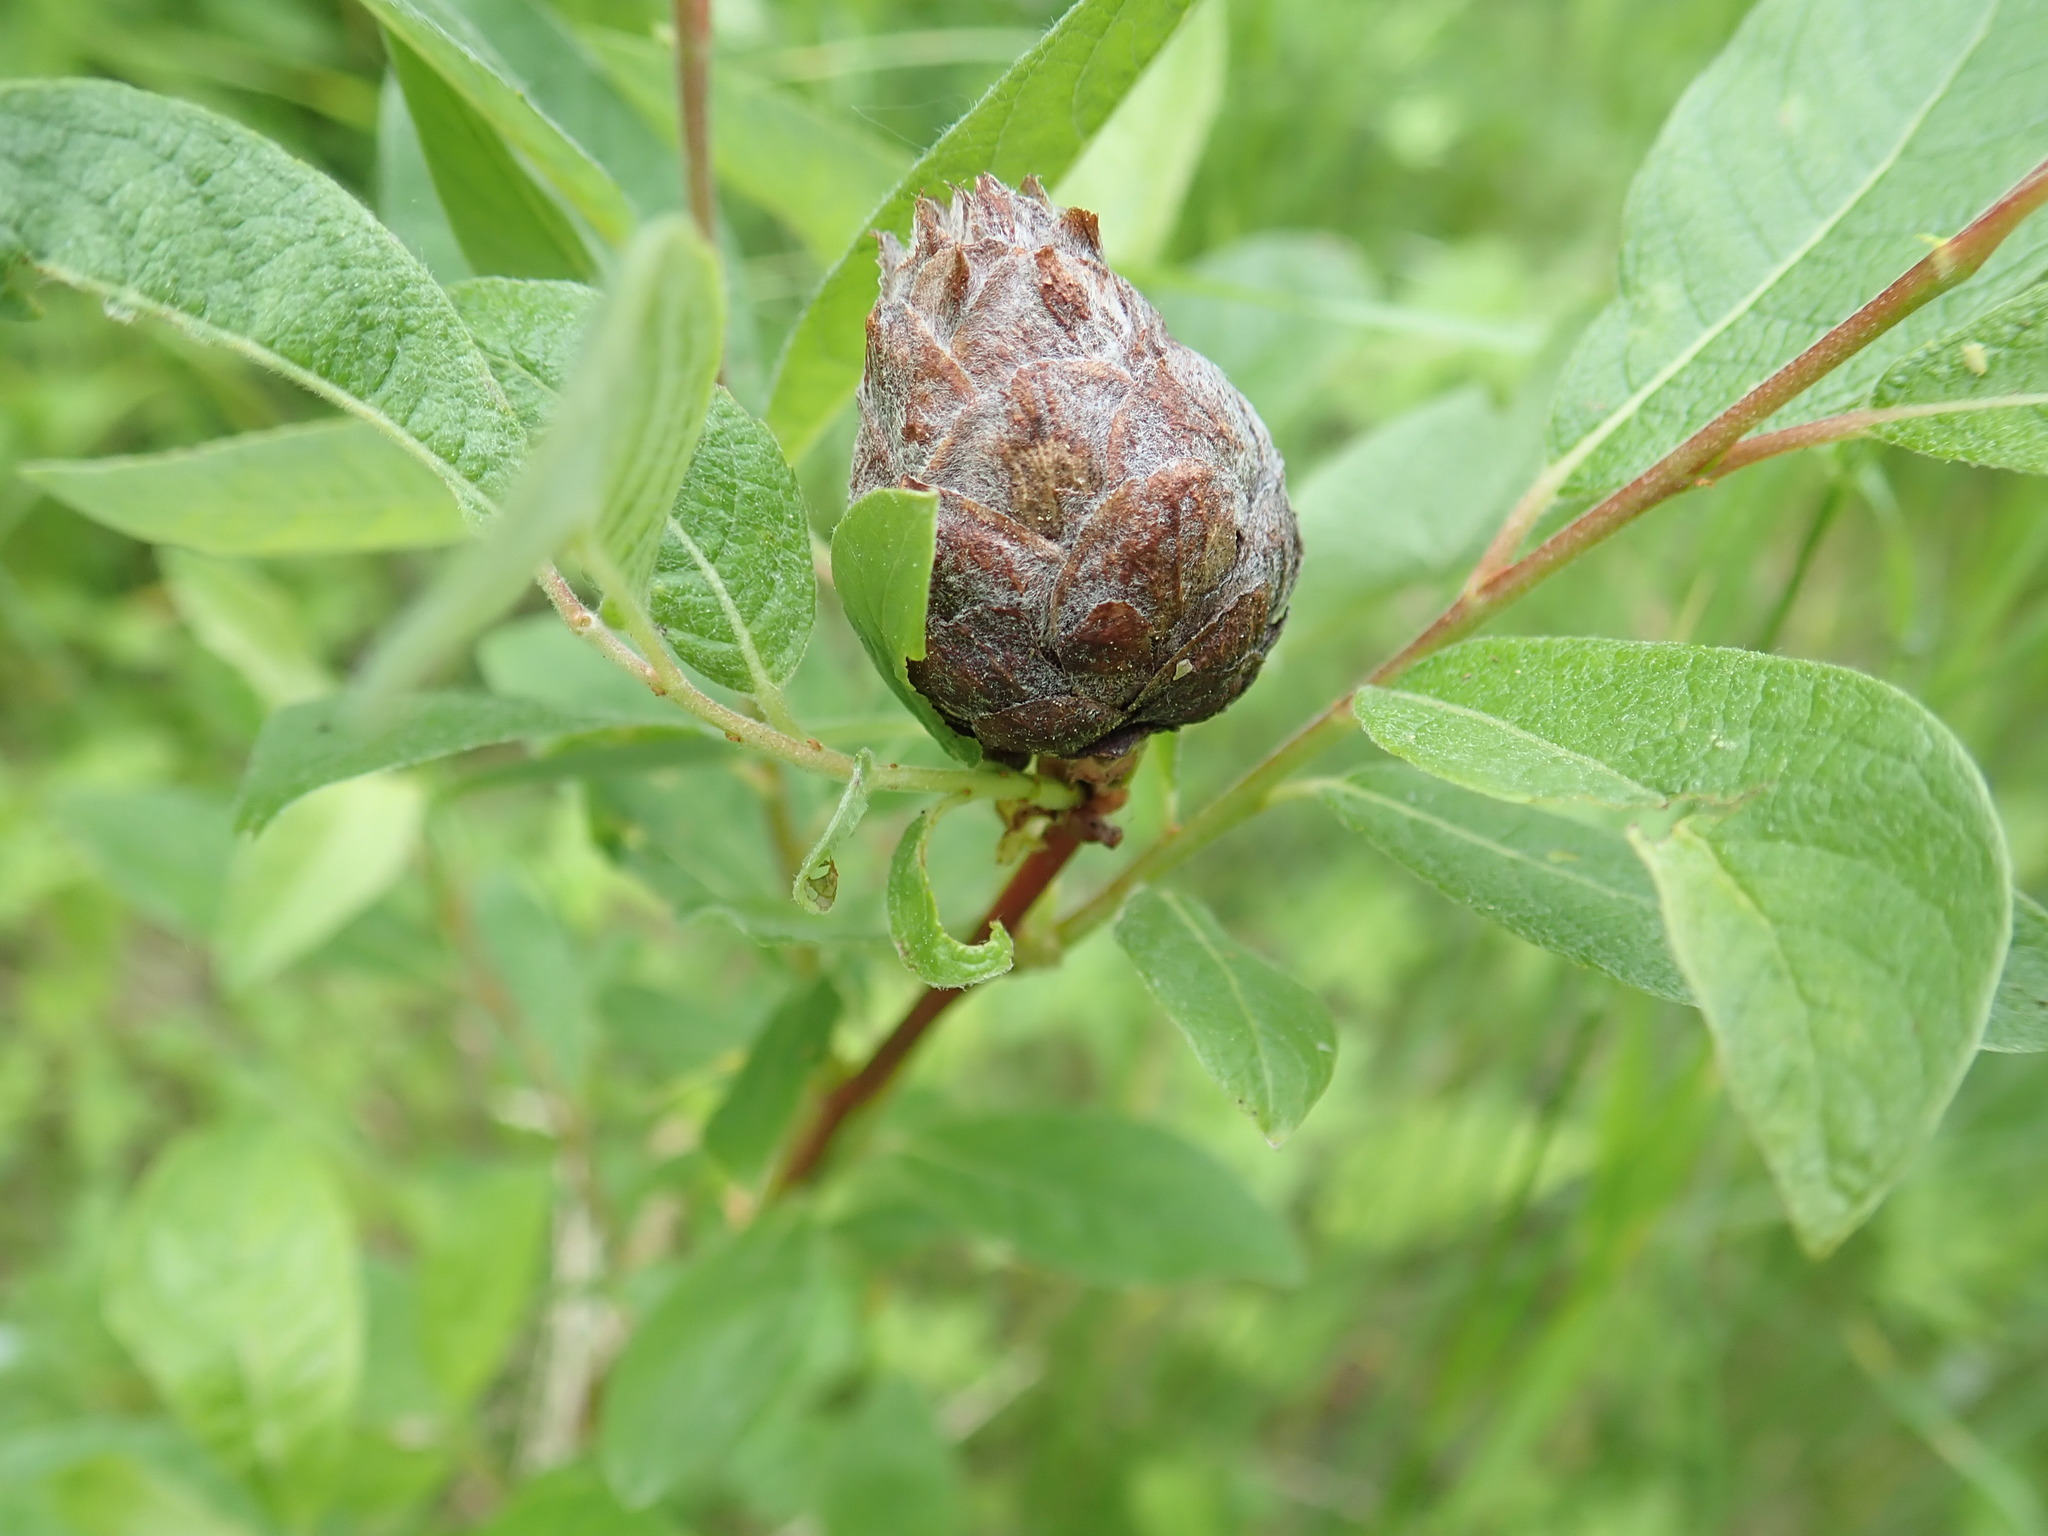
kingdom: Animalia
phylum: Arthropoda
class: Insecta
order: Diptera
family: Cecidomyiidae
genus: Rabdophaga
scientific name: Rabdophaga strobiloides
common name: Willow pinecone gall midge
